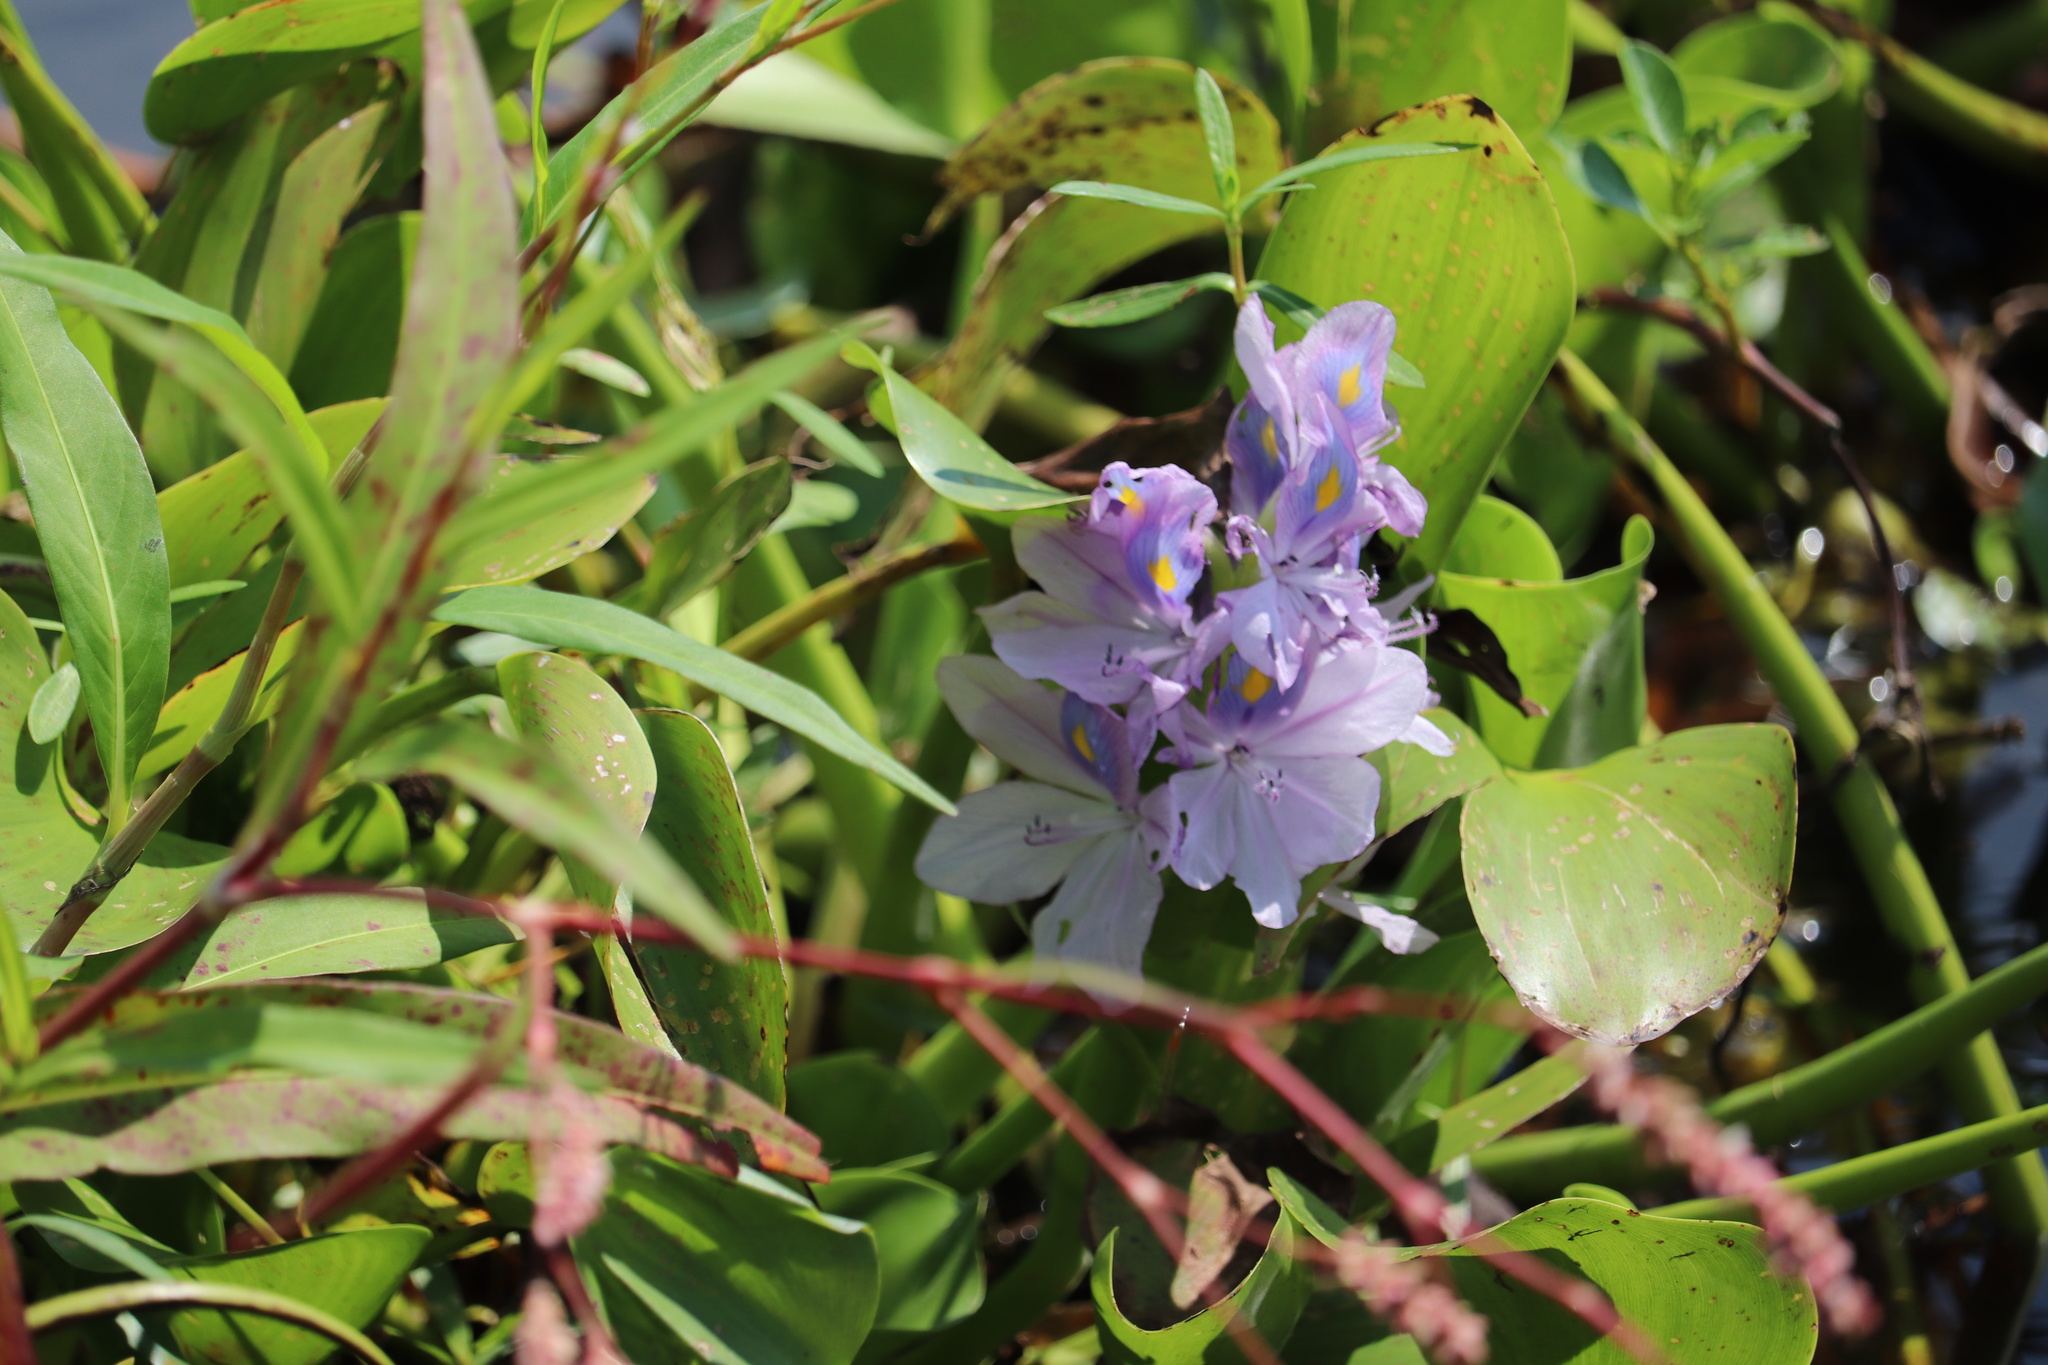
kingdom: Plantae
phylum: Tracheophyta
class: Liliopsida
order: Commelinales
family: Pontederiaceae
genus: Pontederia
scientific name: Pontederia crassipes
